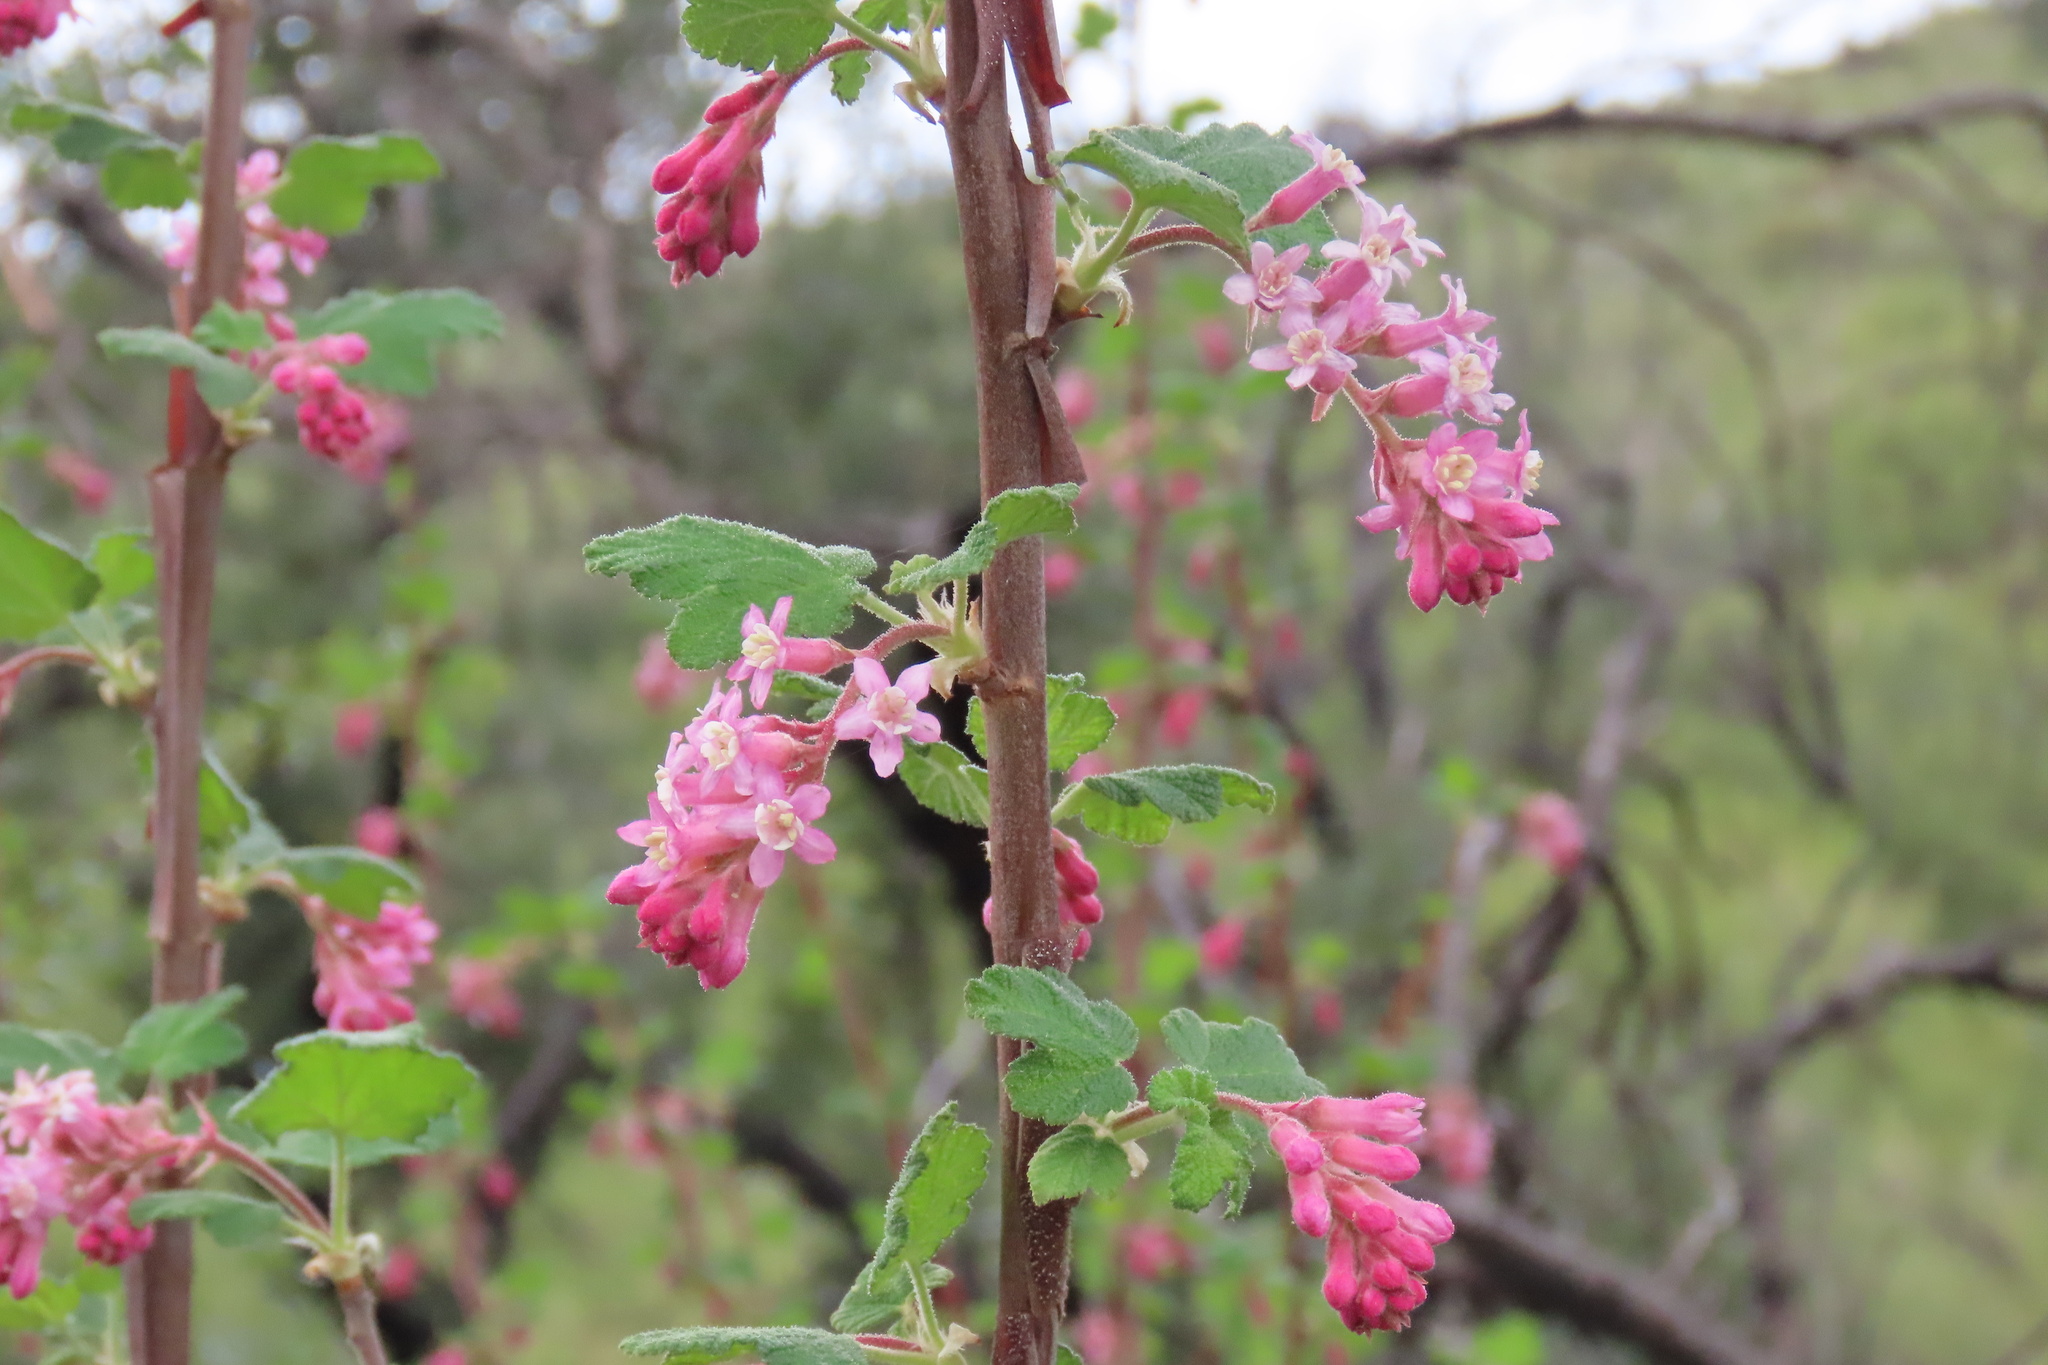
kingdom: Plantae
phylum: Tracheophyta
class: Magnoliopsida
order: Saxifragales
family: Grossulariaceae
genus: Ribes
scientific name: Ribes malvaceum
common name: Chaparral currant
